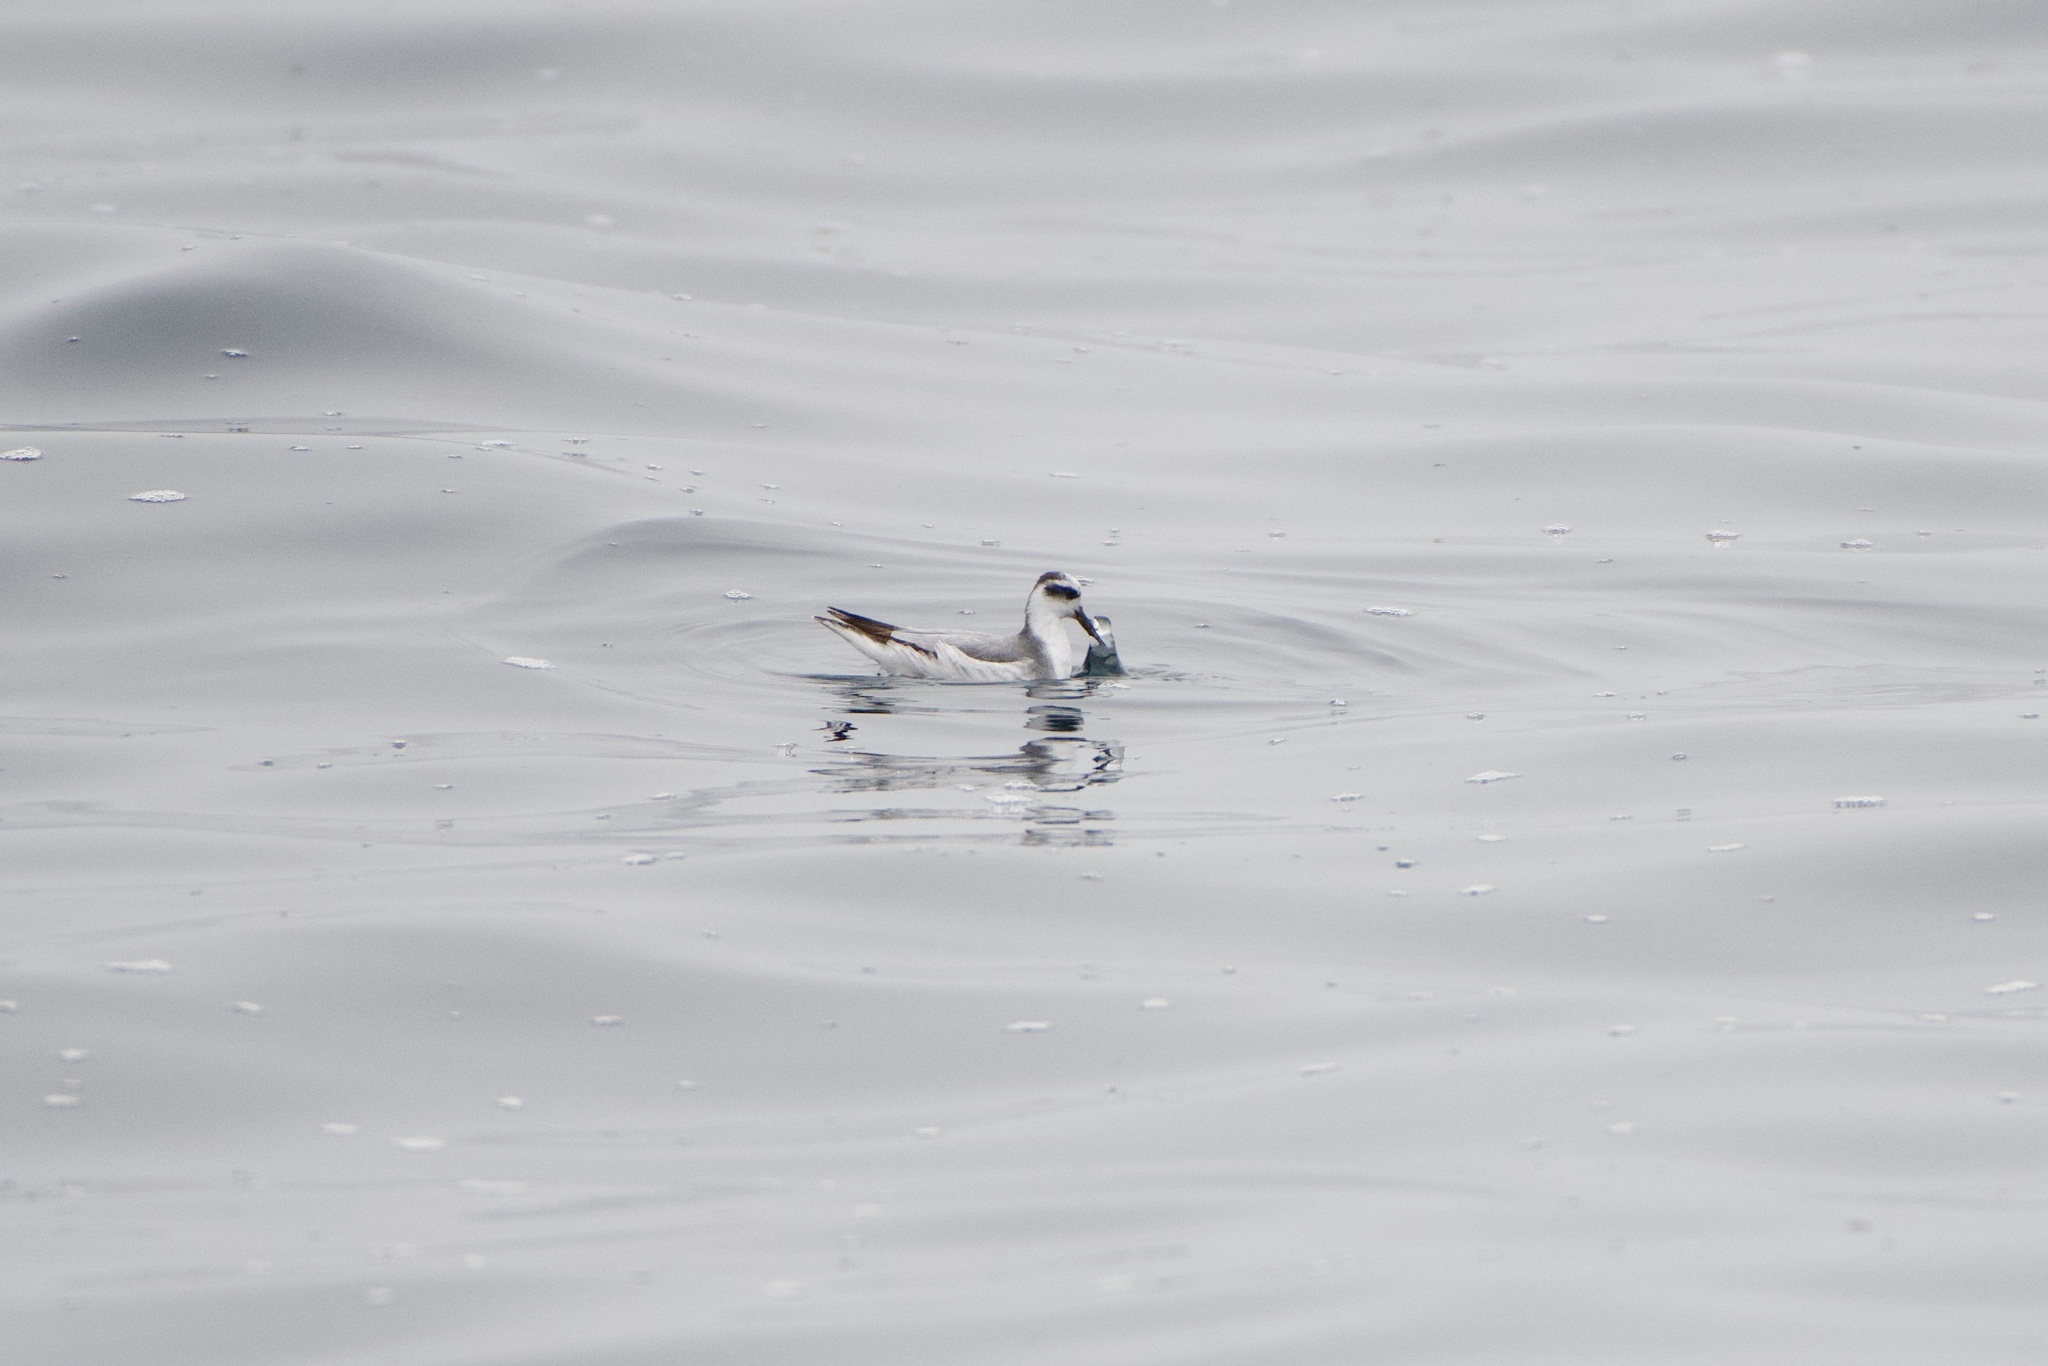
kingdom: Animalia
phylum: Chordata
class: Aves
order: Charadriiformes
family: Scolopacidae
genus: Phalaropus
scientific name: Phalaropus fulicarius
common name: Red phalarope
